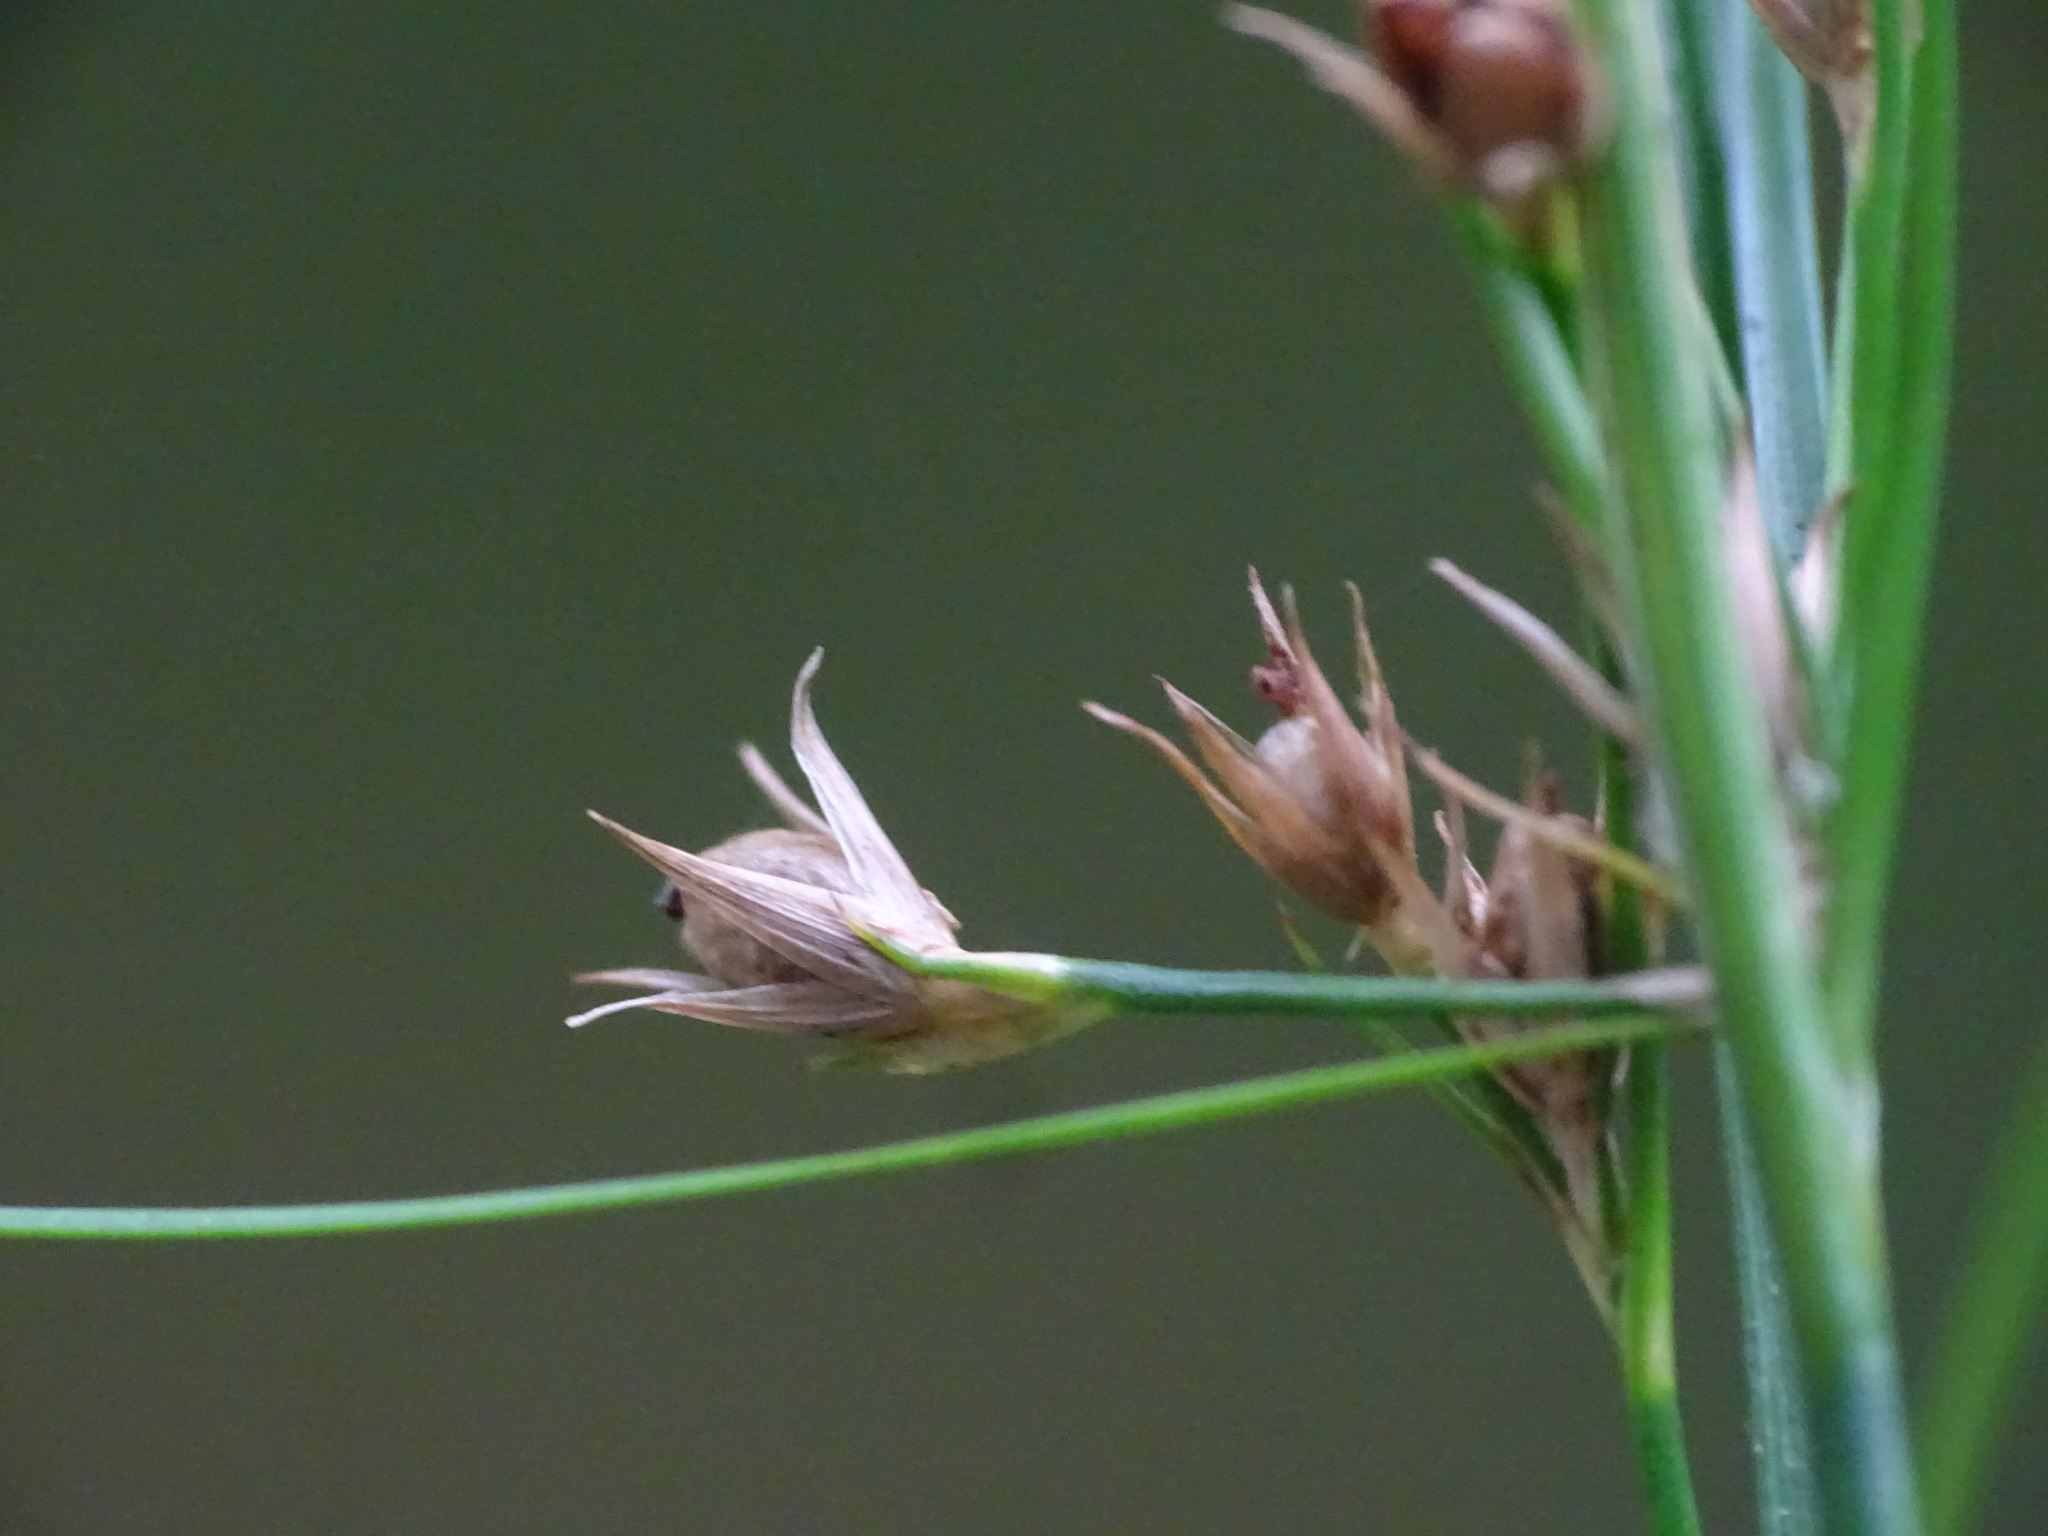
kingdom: Plantae
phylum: Tracheophyta
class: Liliopsida
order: Poales
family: Juncaceae
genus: Juncus
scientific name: Juncus tenuis
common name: Slender rush
